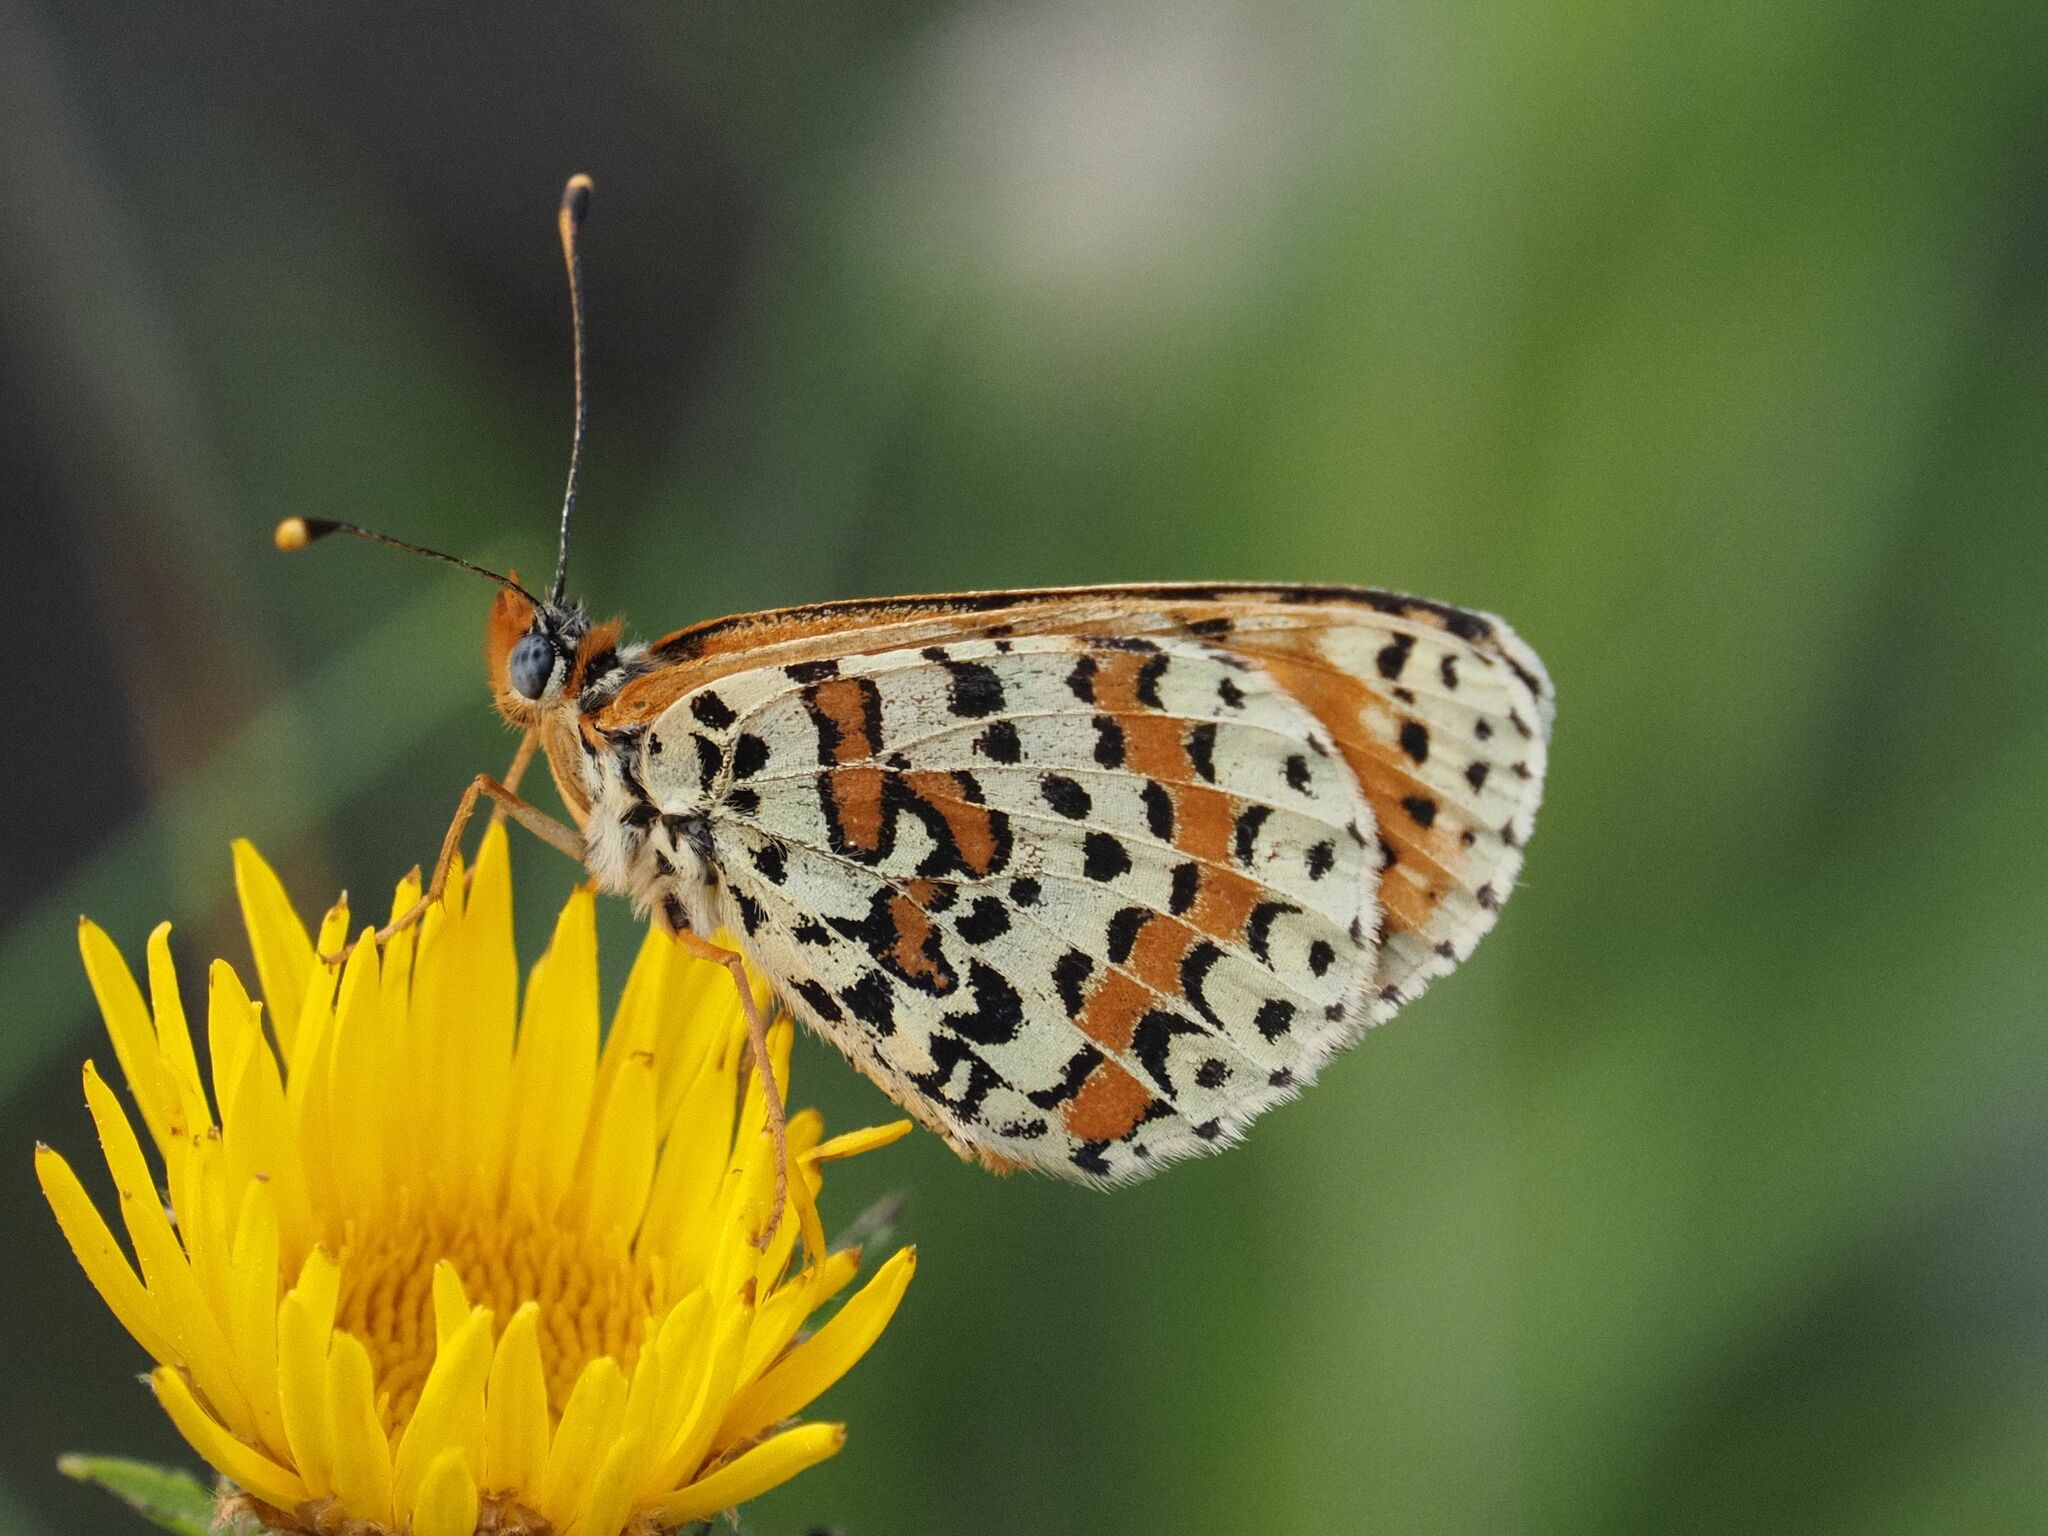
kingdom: Animalia
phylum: Arthropoda
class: Insecta
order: Lepidoptera
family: Nymphalidae
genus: Melitaea
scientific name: Melitaea didyma
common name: Spotted fritillary
